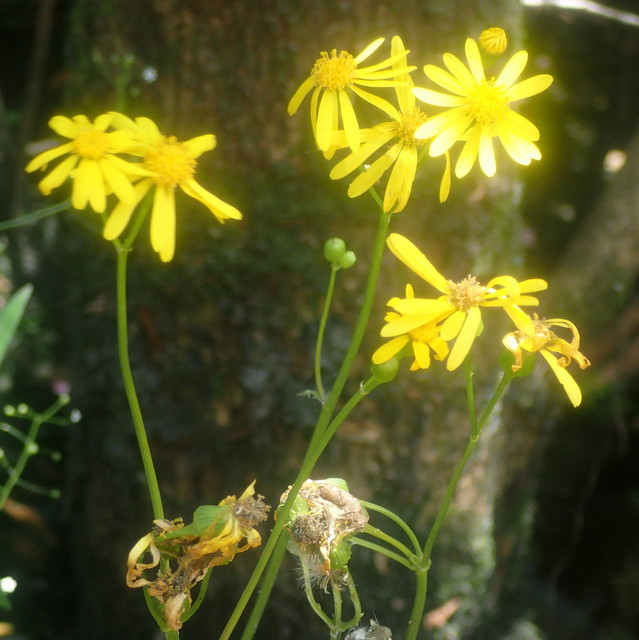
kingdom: Plantae
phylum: Tracheophyta
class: Magnoliopsida
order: Asterales
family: Asteraceae
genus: Packera
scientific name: Packera glabella
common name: Butterweed
